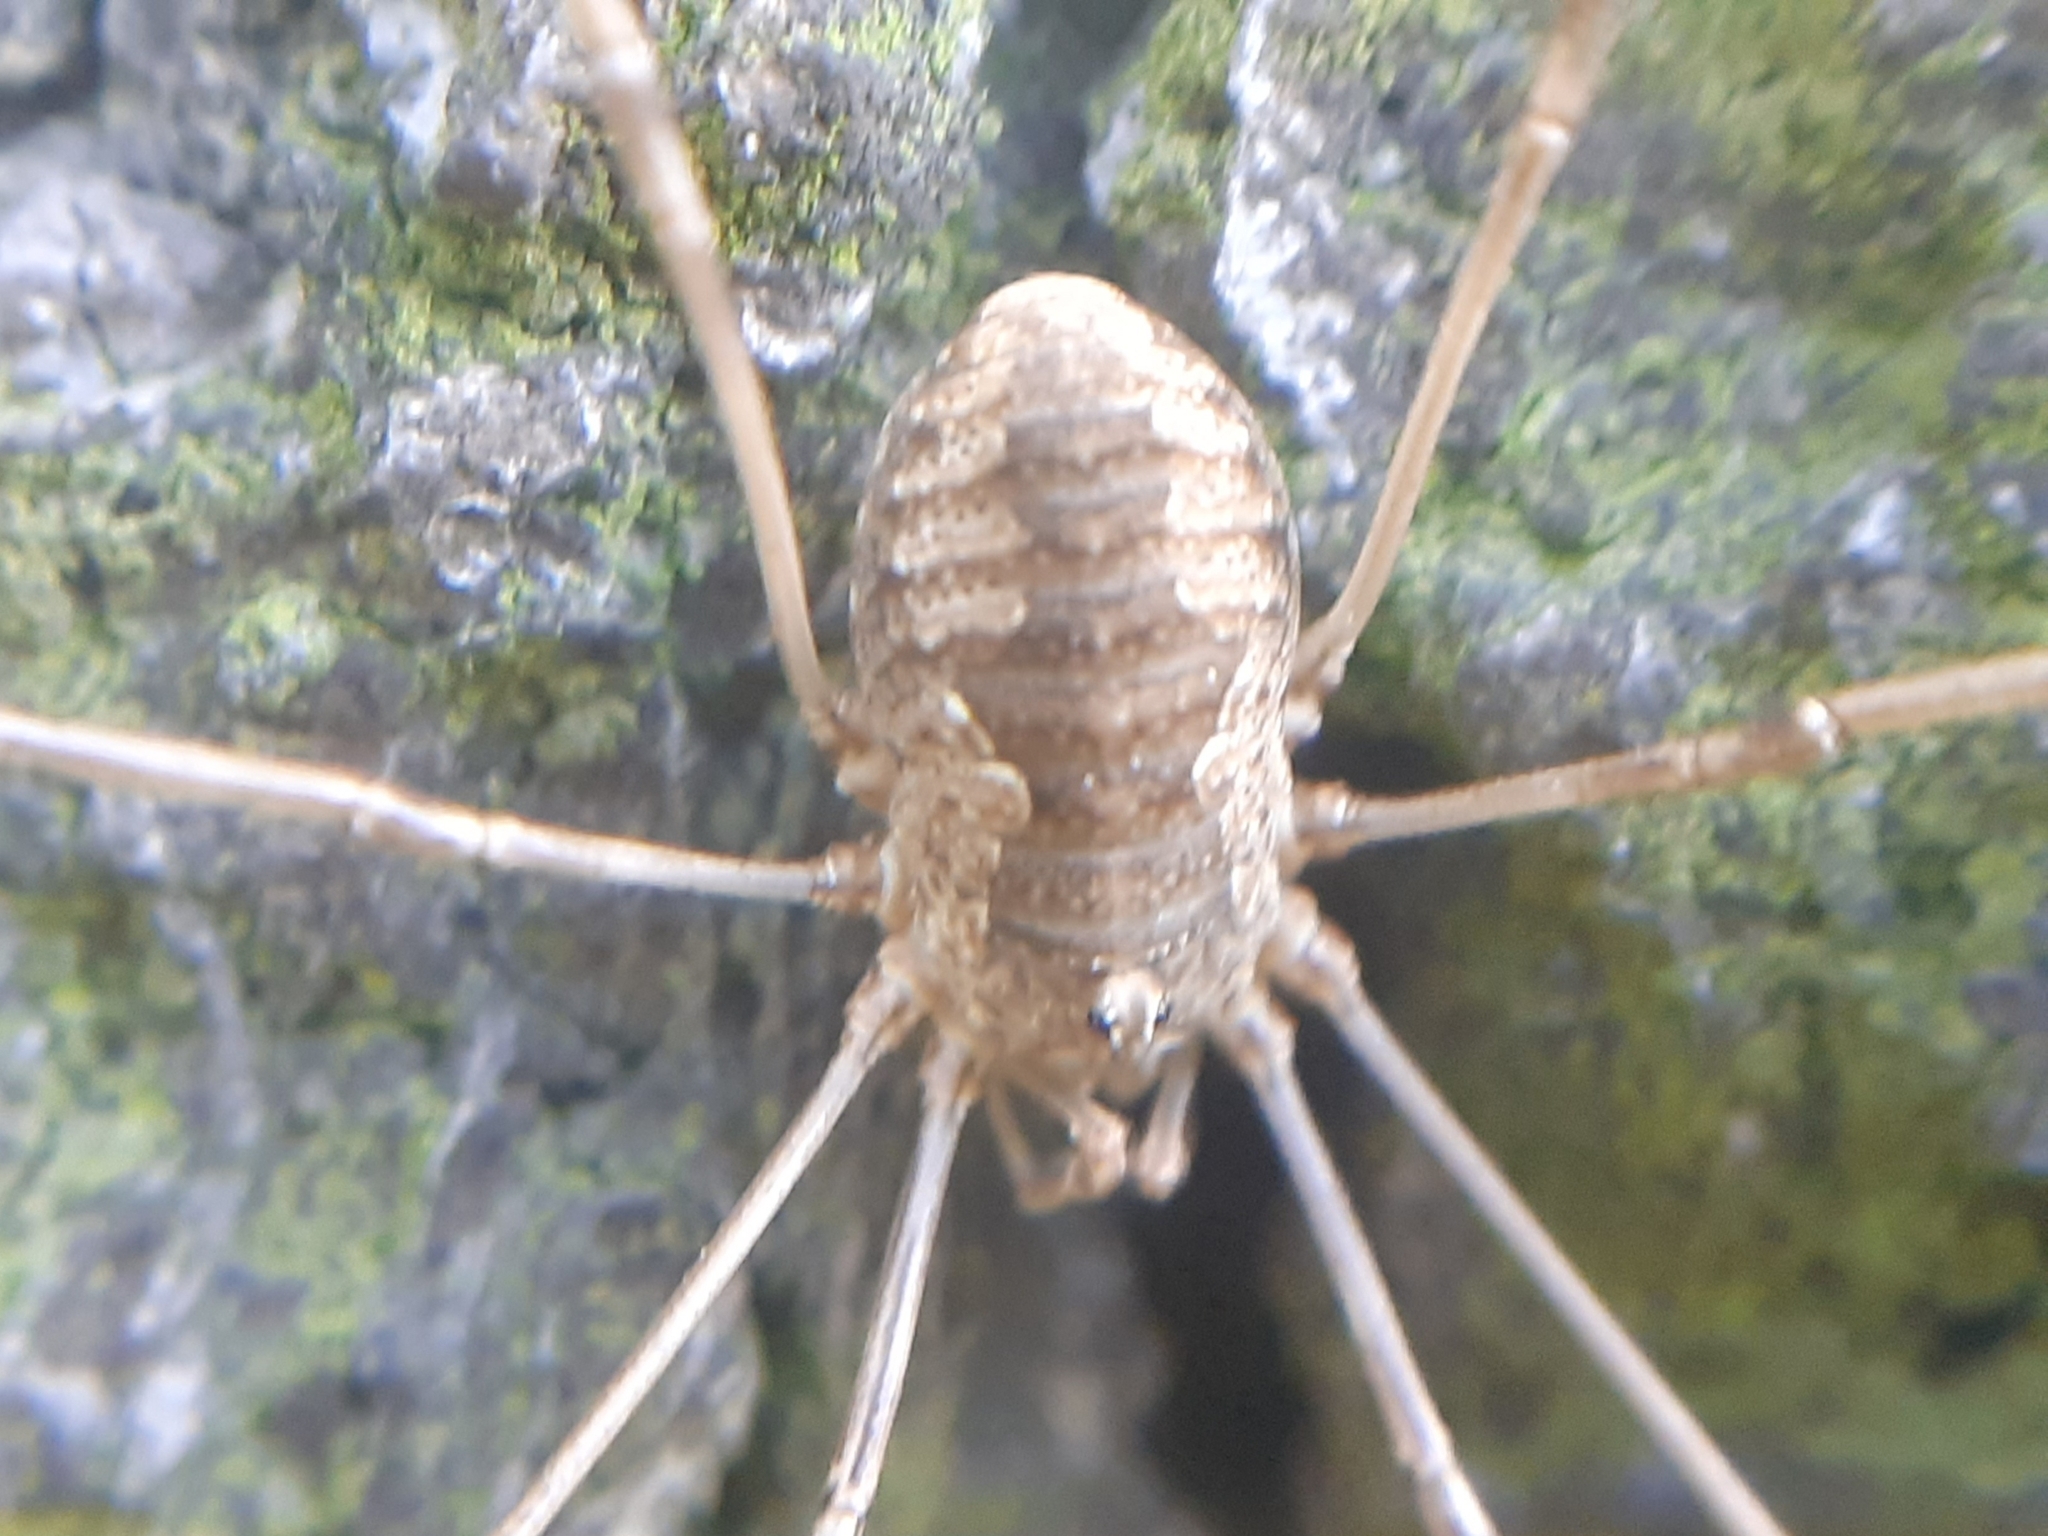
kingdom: Animalia
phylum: Arthropoda
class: Arachnida
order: Opiliones
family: Phalangiidae
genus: Phalangium
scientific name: Phalangium opilio
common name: Daddy longleg
